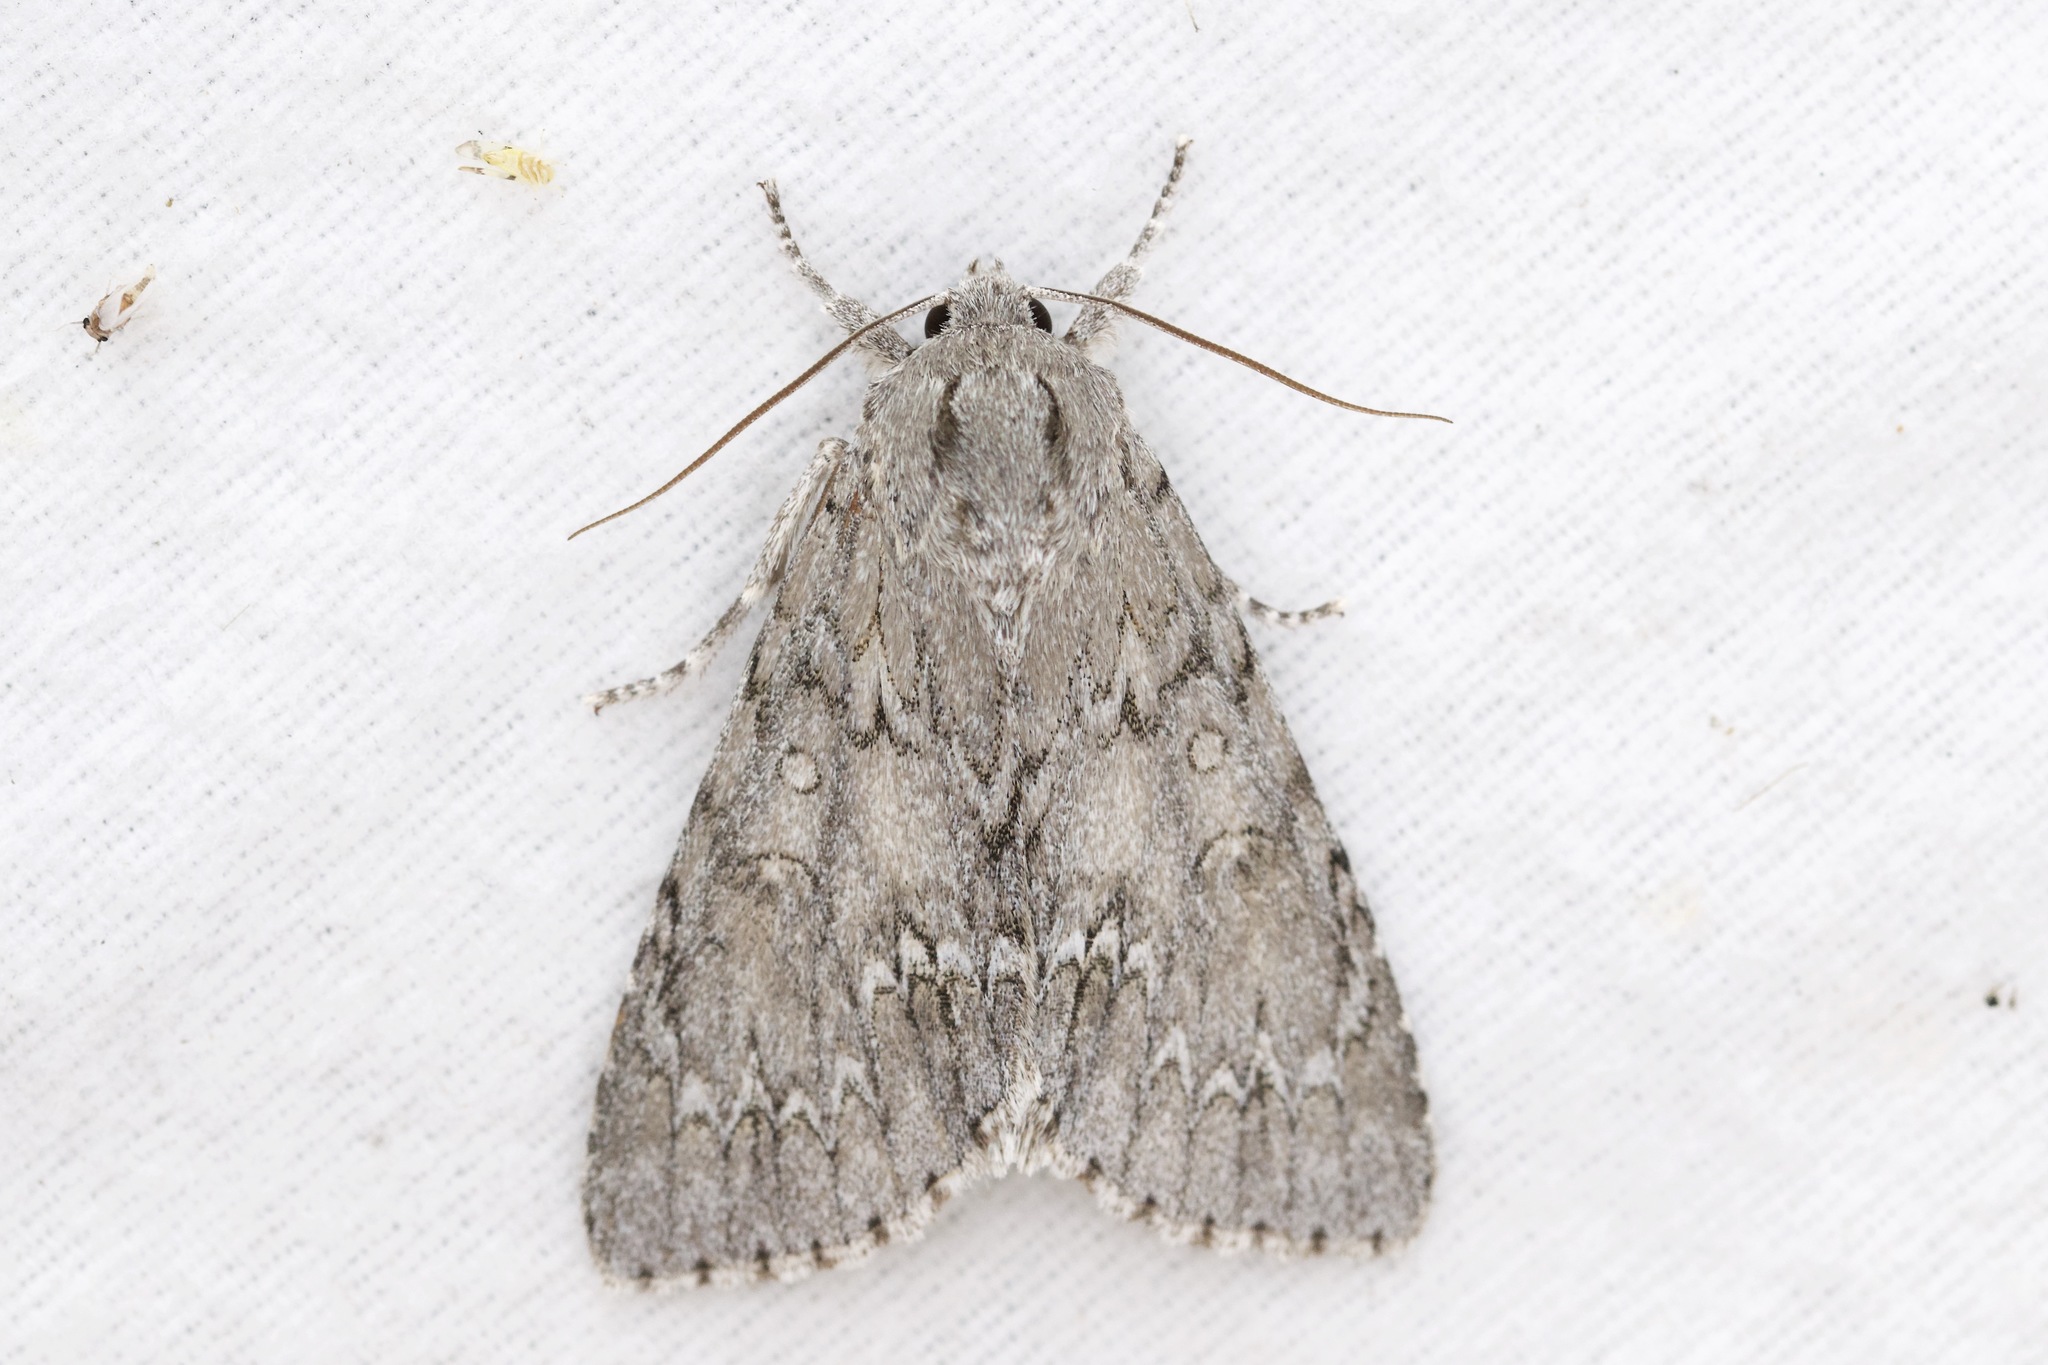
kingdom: Animalia
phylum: Arthropoda
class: Insecta
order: Lepidoptera
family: Noctuidae
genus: Acronicta
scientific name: Acronicta americana
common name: American dagger
